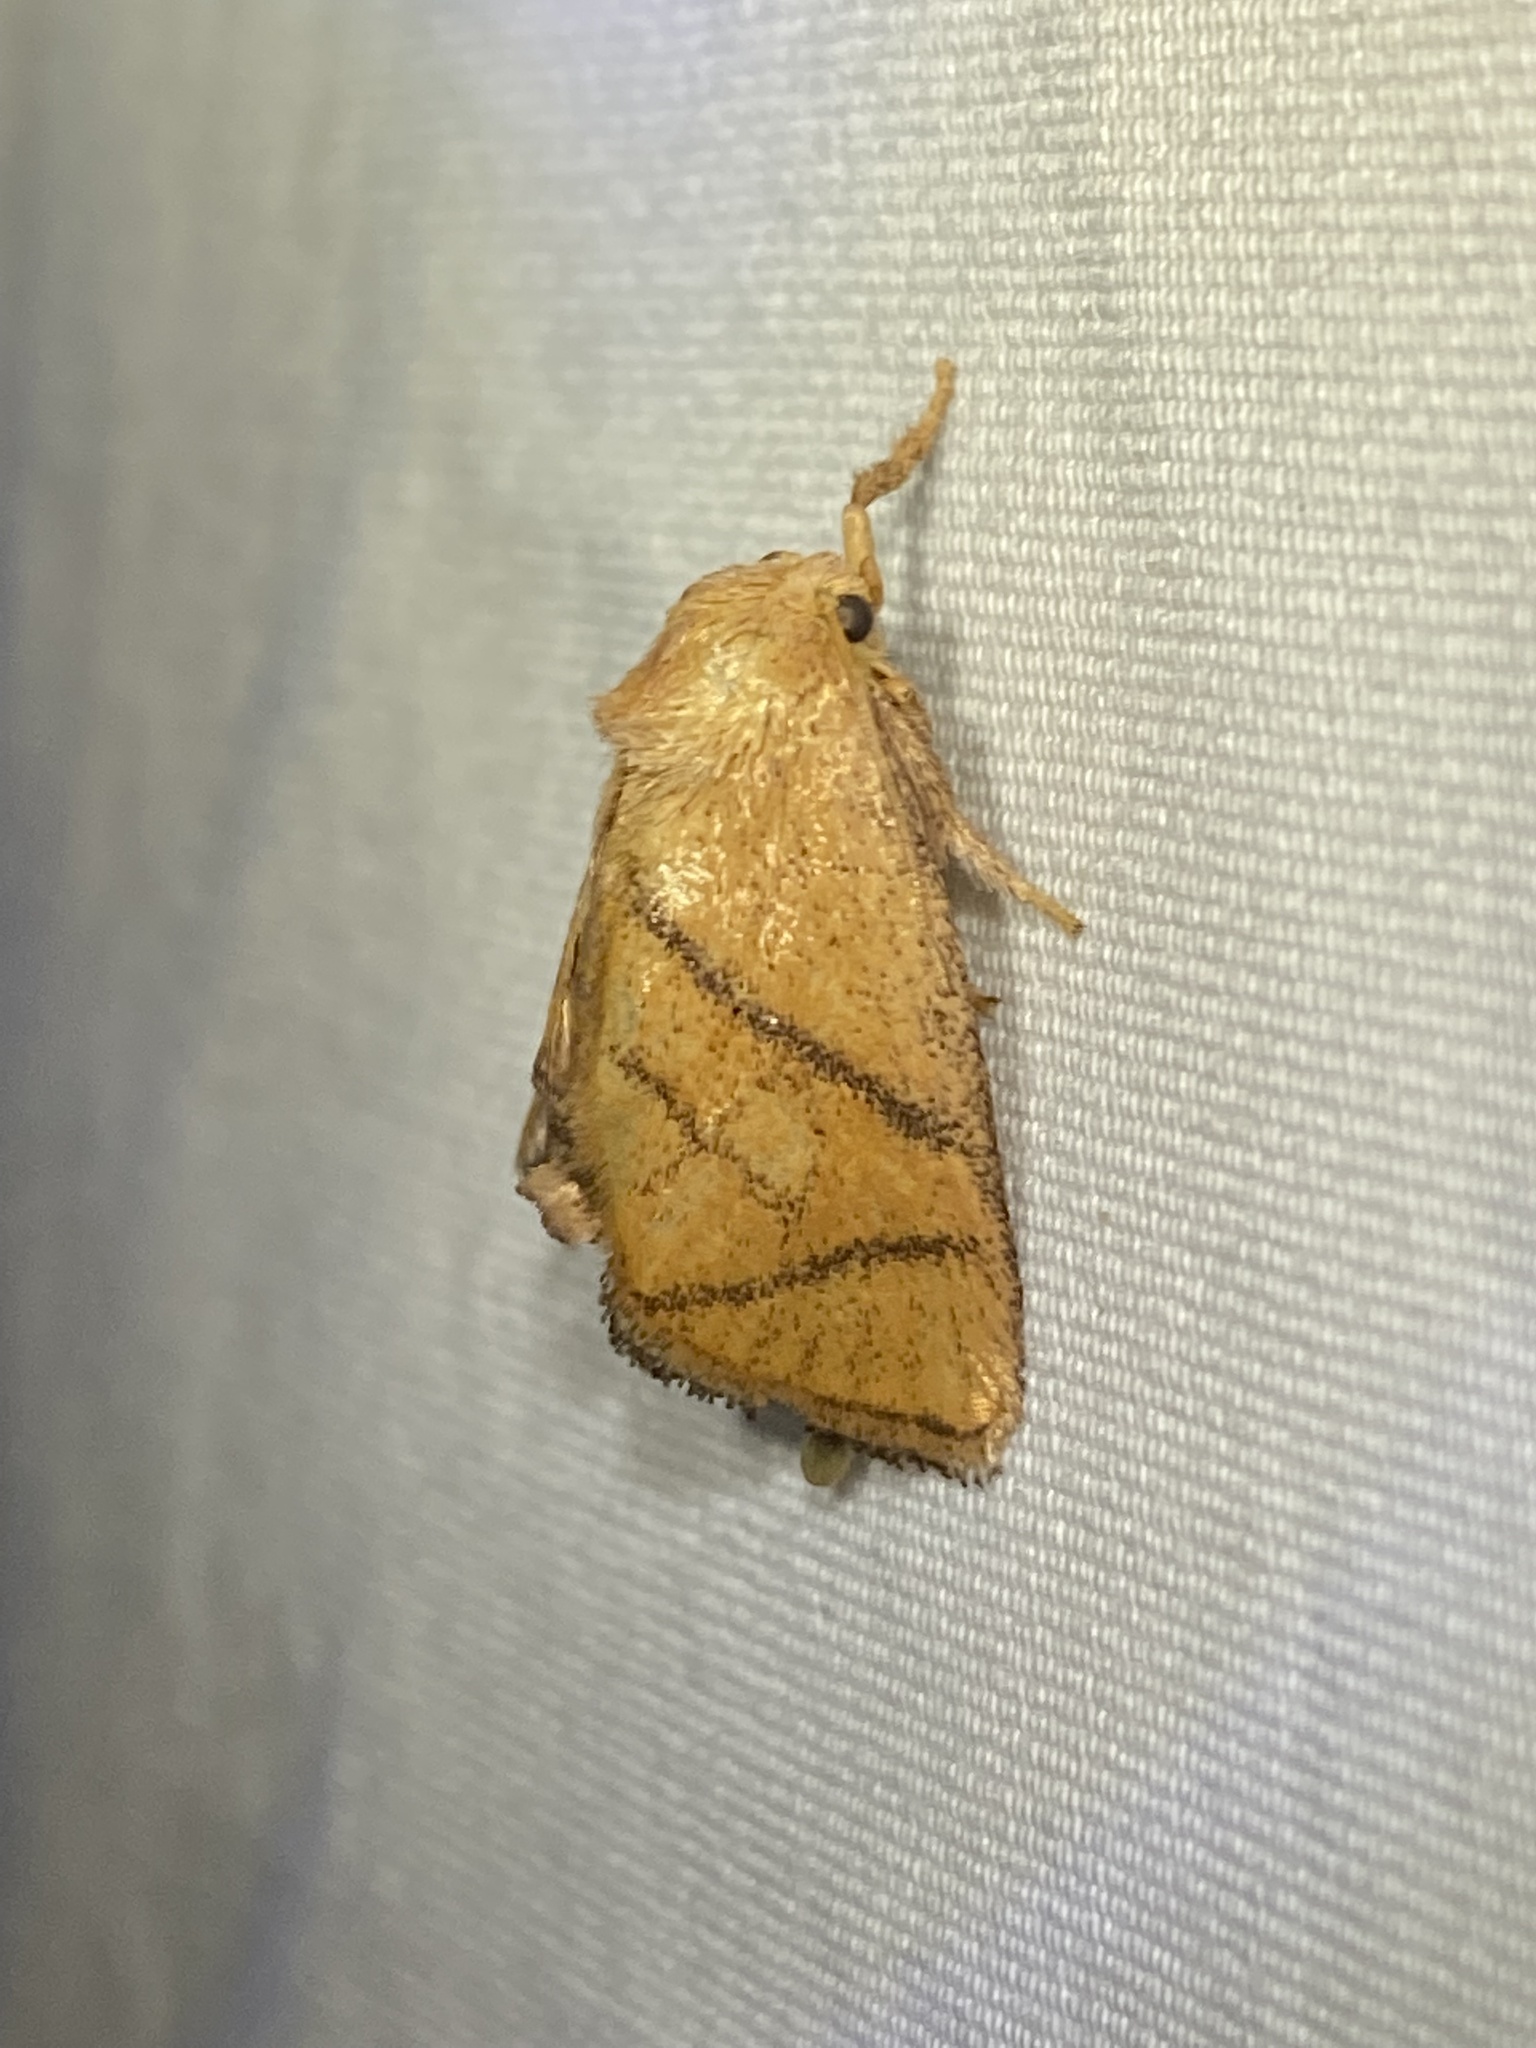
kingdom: Animalia
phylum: Arthropoda
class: Insecta
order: Lepidoptera
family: Limacodidae
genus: Apoda
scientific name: Apoda y-inversa
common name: Yellow-collared slug moth
